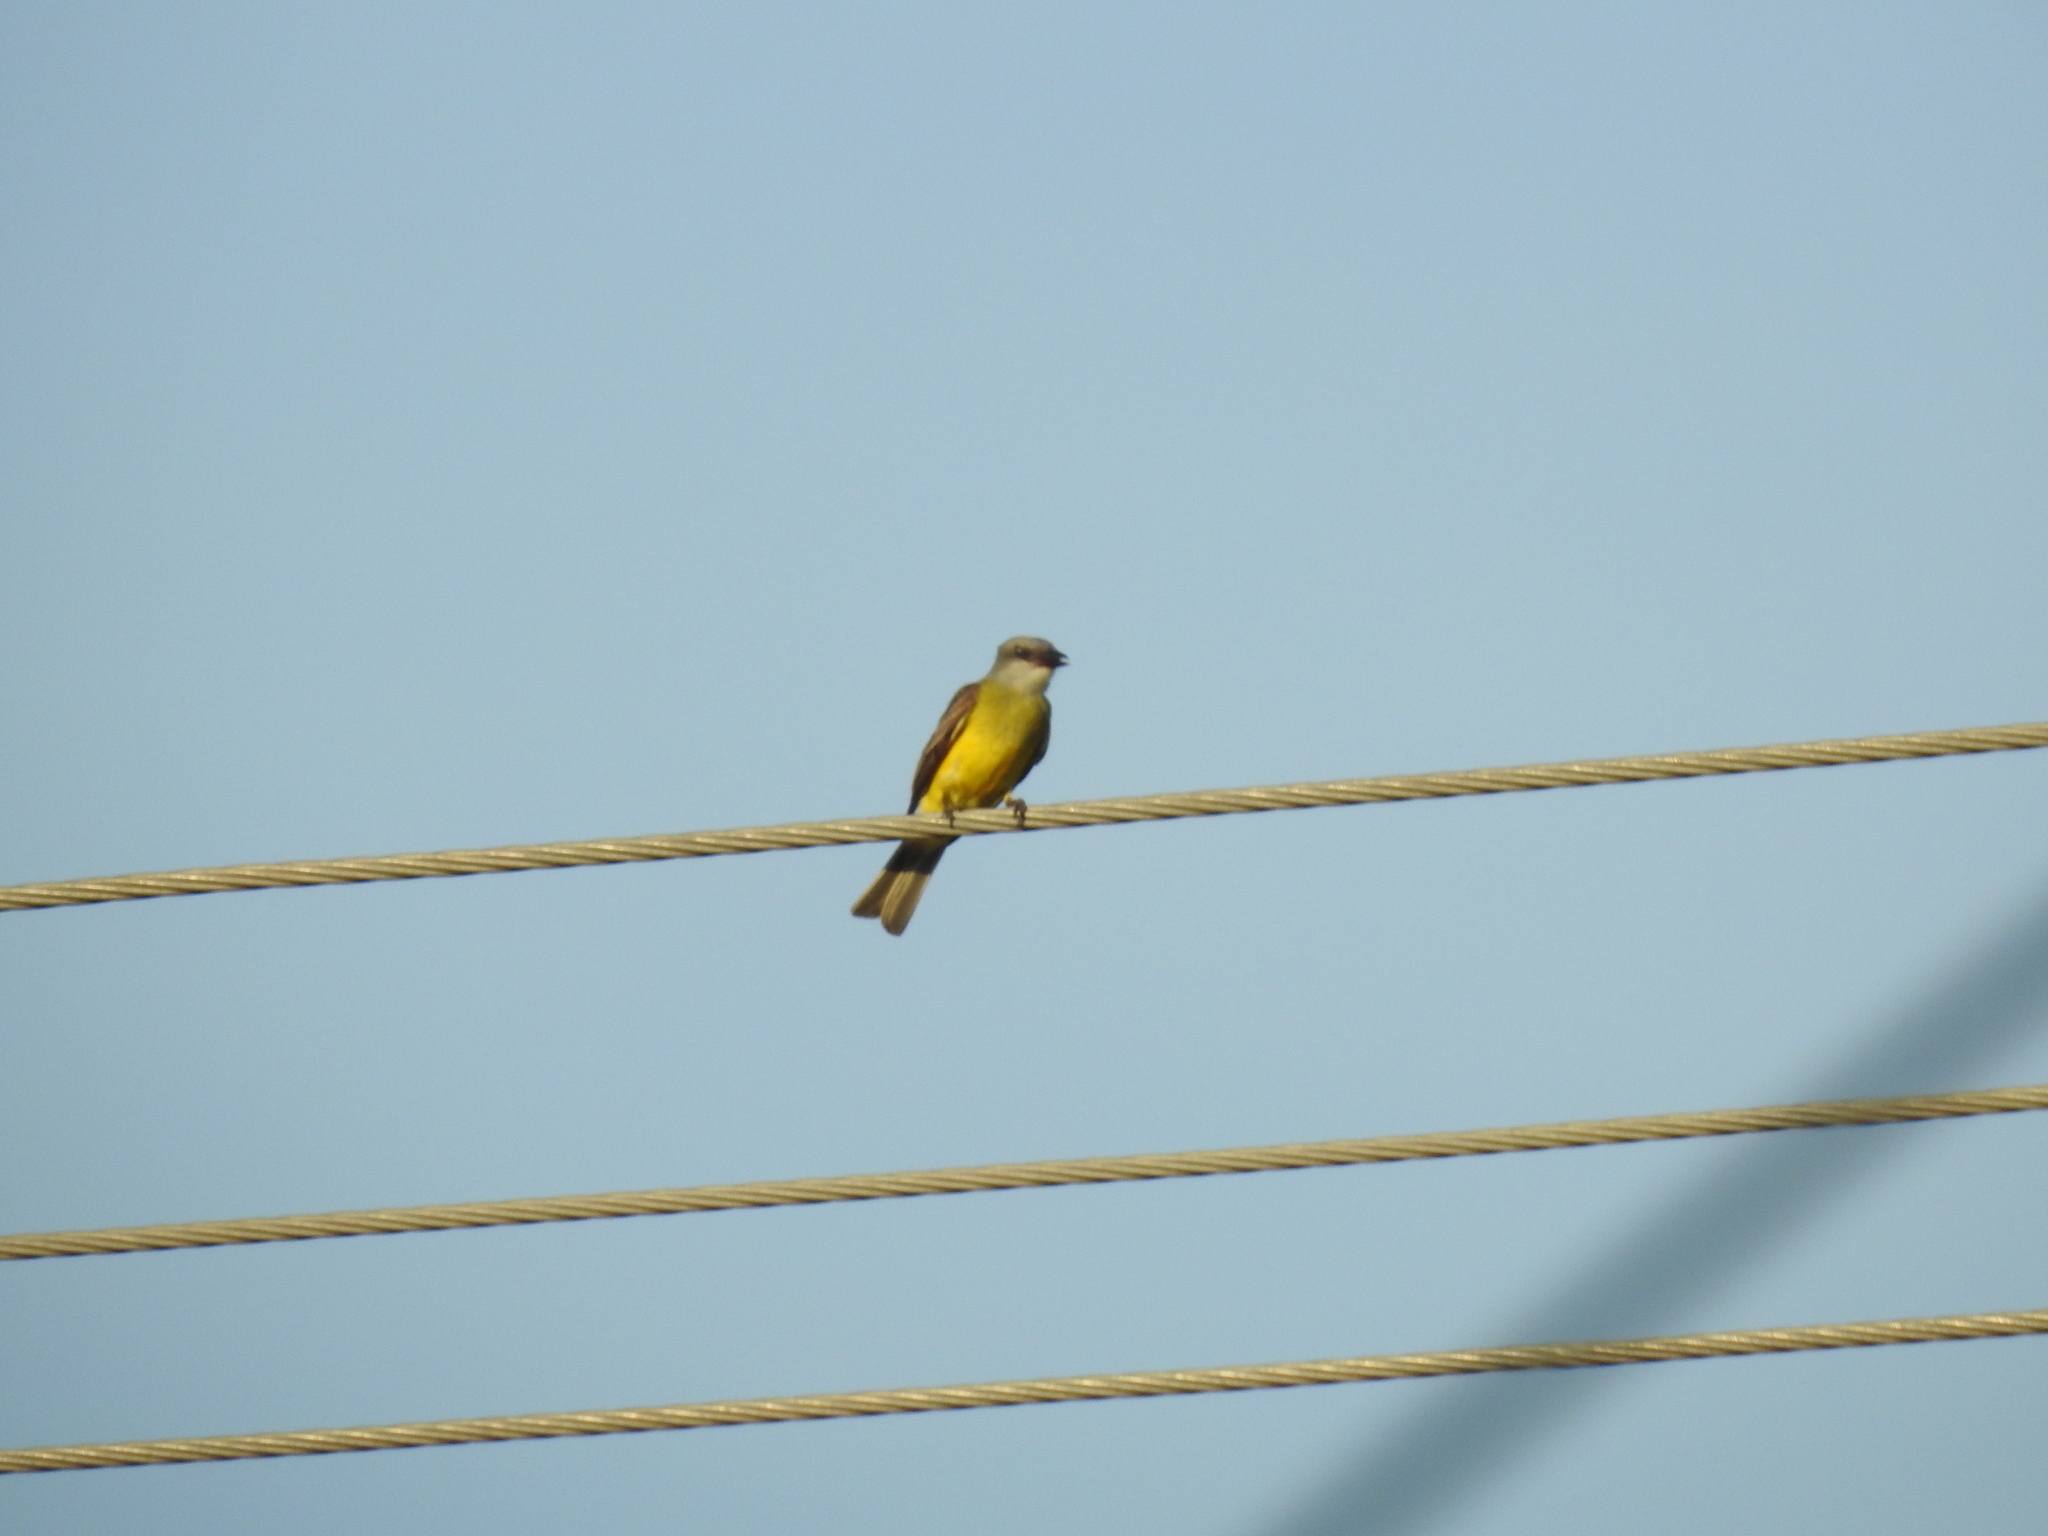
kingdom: Animalia
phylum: Chordata
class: Aves
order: Passeriformes
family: Tyrannidae
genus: Tyrannus
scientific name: Tyrannus
